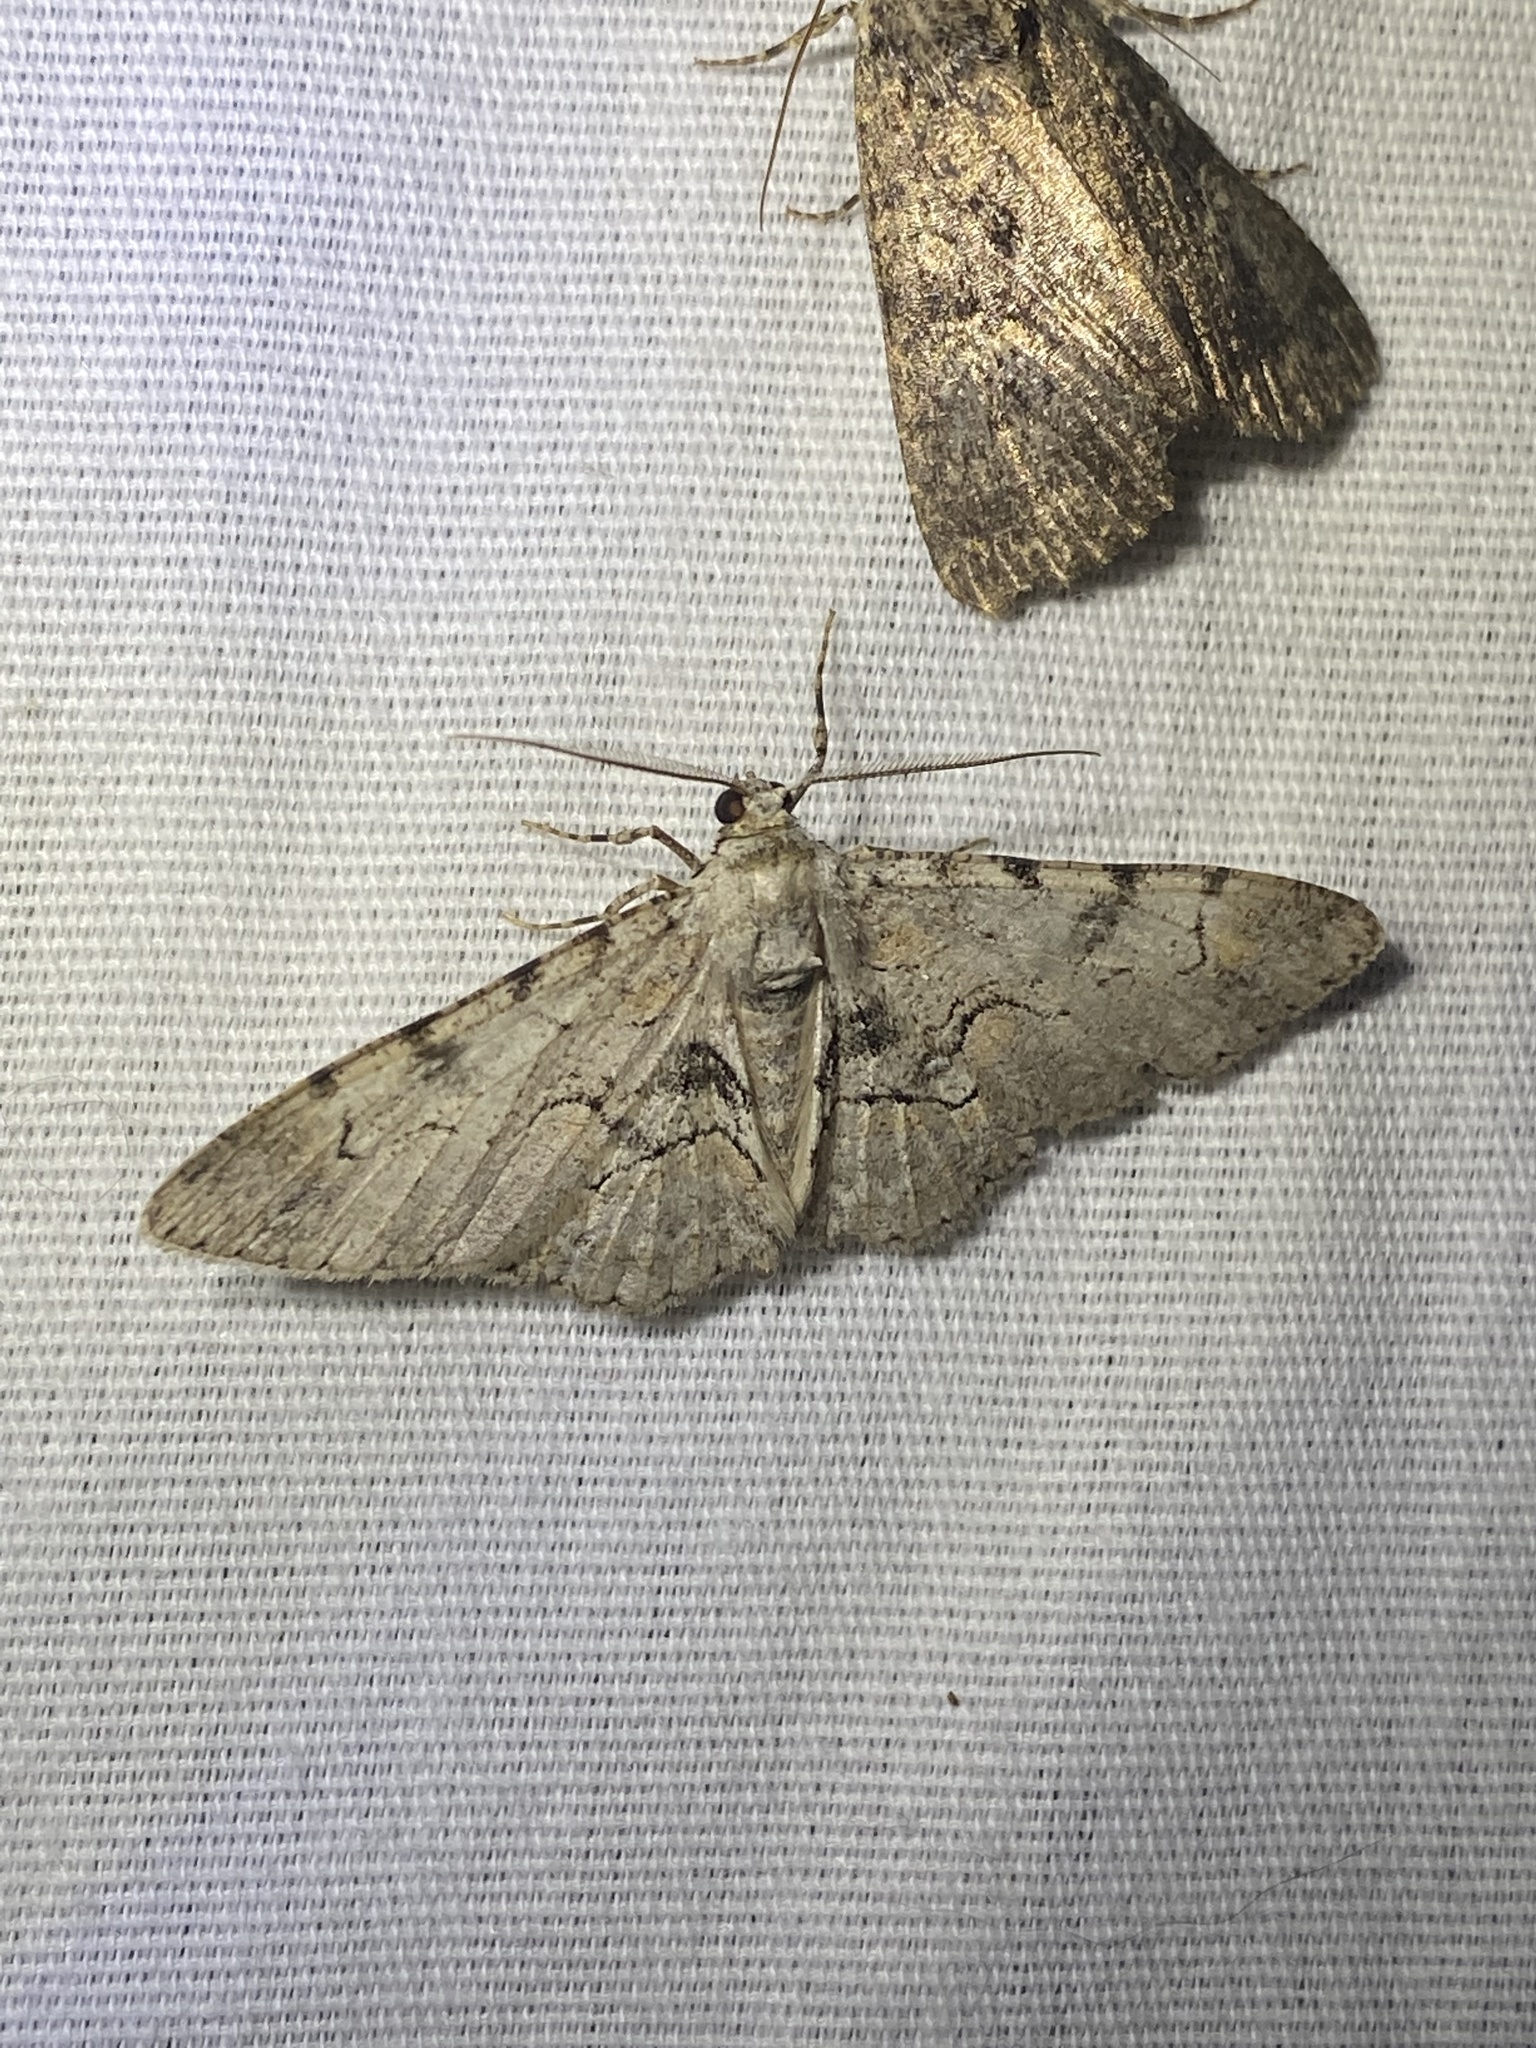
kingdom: Animalia
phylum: Arthropoda
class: Insecta
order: Lepidoptera
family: Geometridae
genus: Iridopsis
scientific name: Iridopsis larvaria
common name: Bent-line gray
